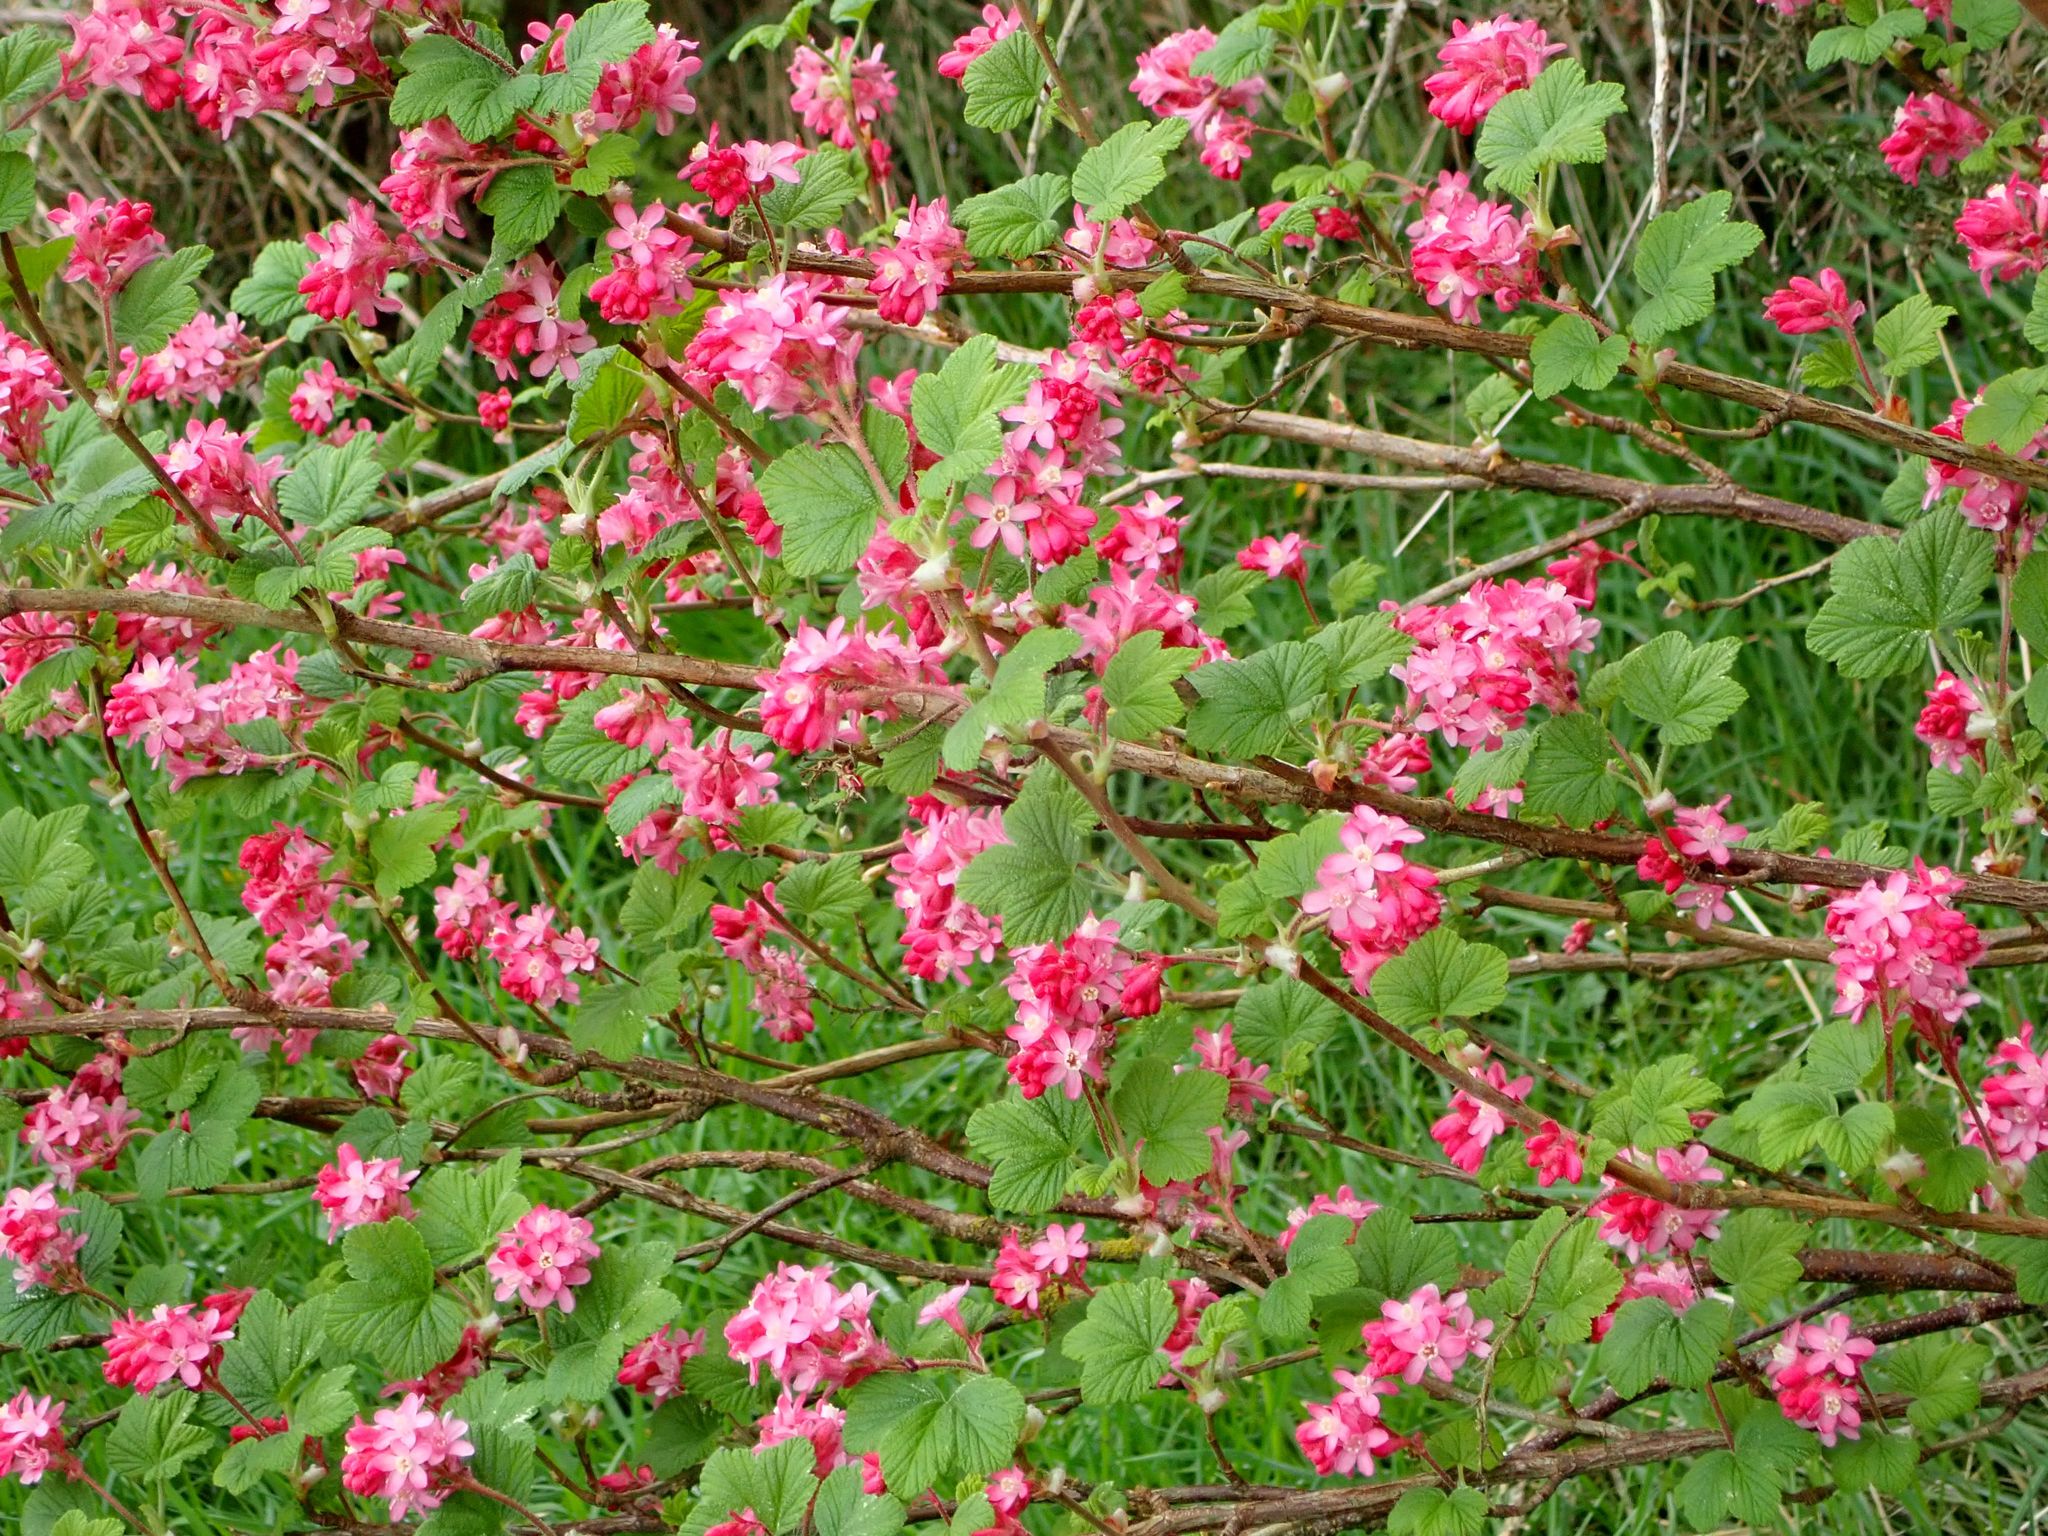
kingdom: Plantae
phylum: Tracheophyta
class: Magnoliopsida
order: Saxifragales
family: Grossulariaceae
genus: Ribes
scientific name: Ribes sanguineum
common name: Flowering currant
